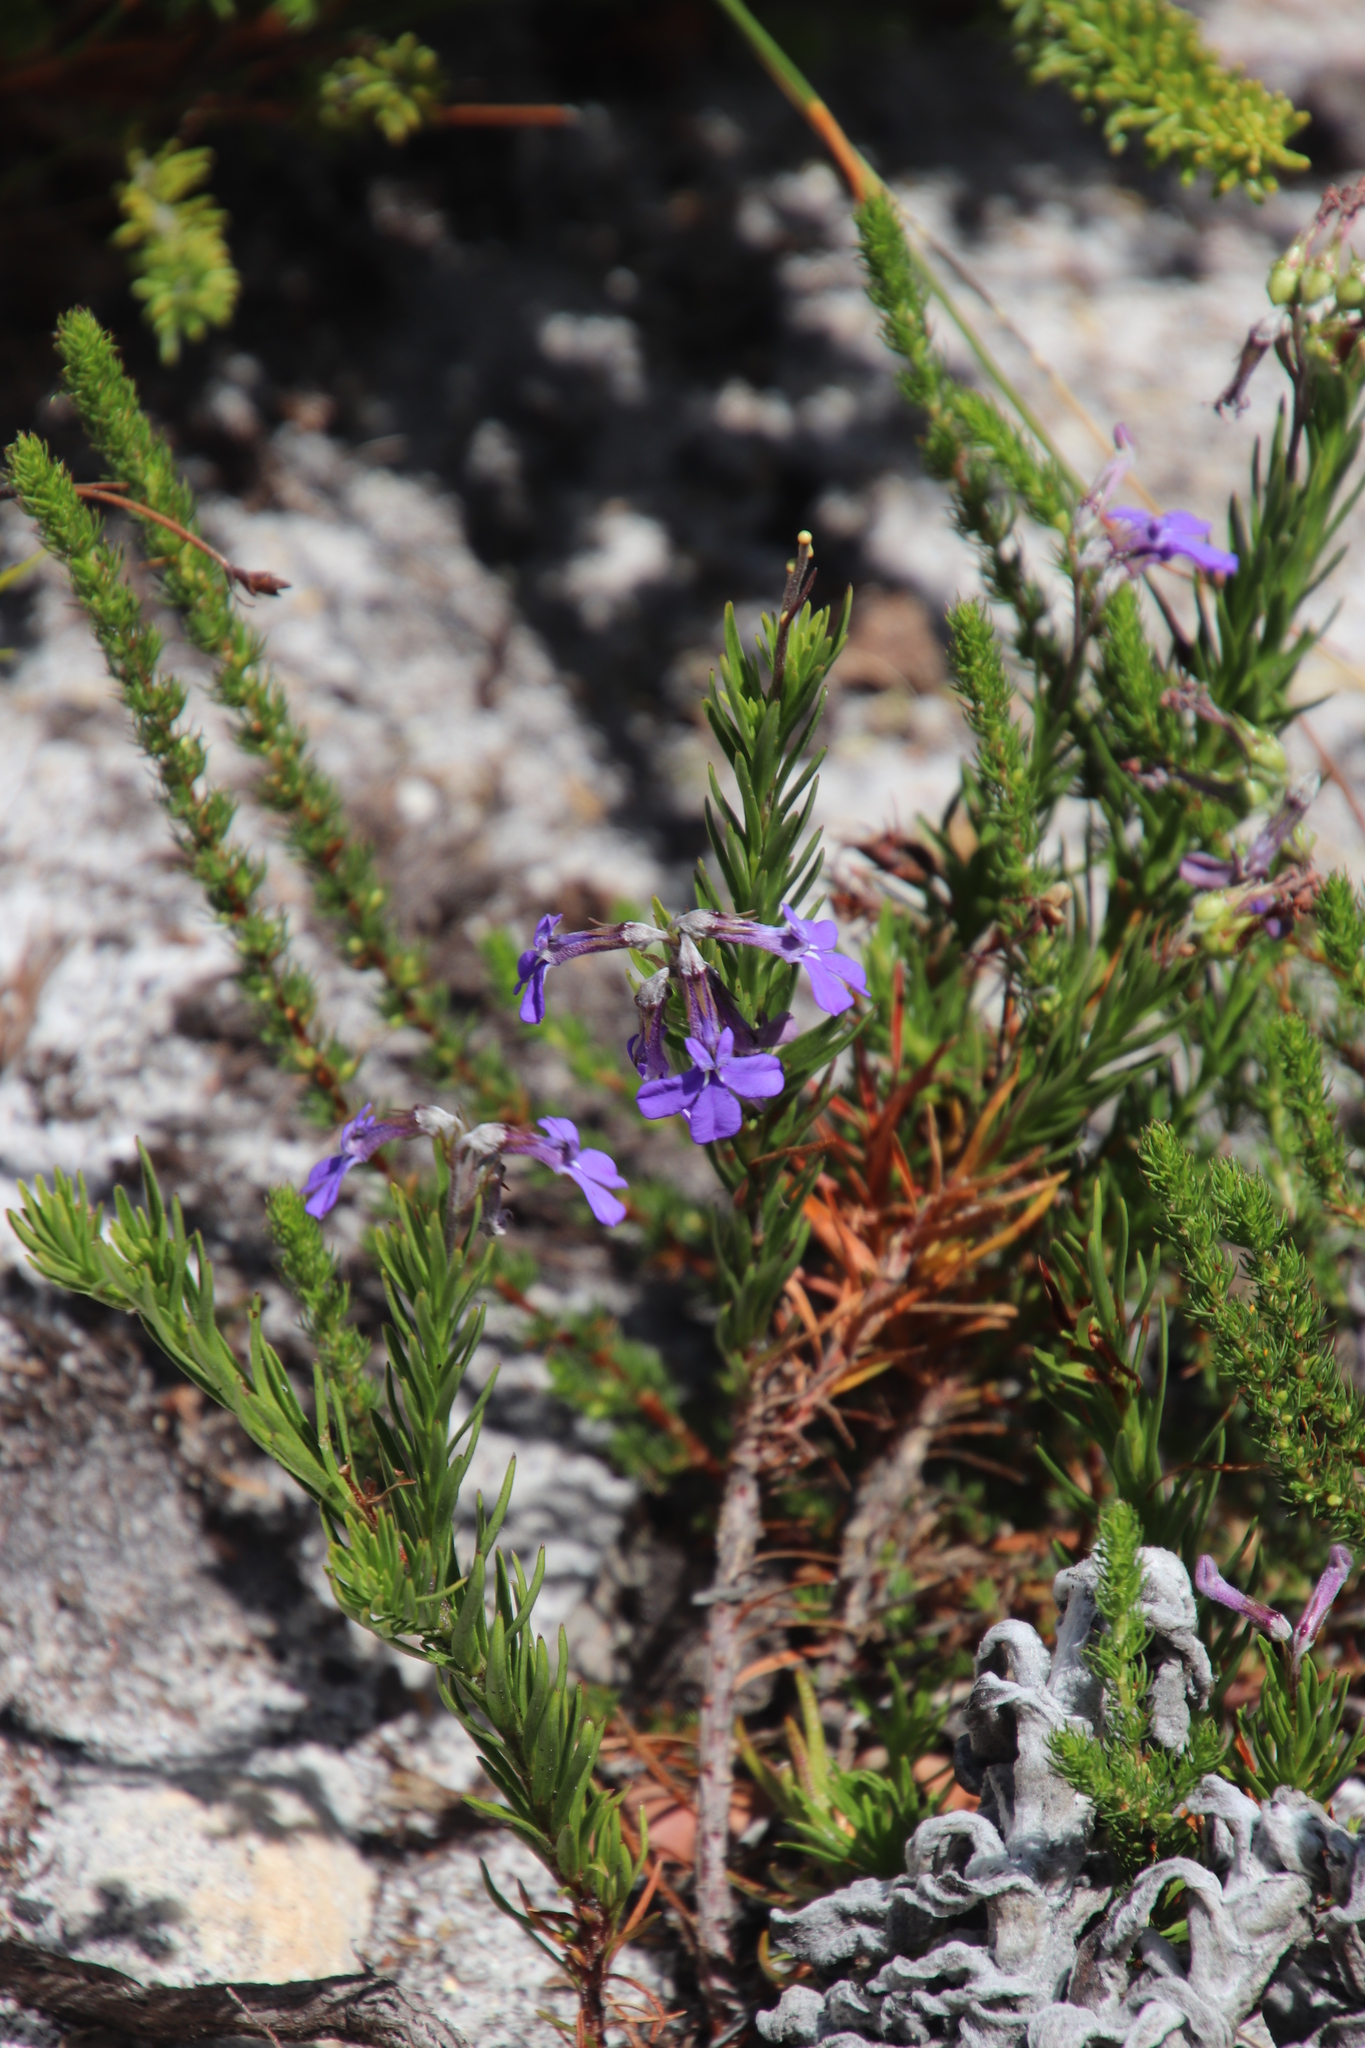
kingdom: Plantae
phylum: Tracheophyta
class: Magnoliopsida
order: Asterales
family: Campanulaceae
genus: Lobelia
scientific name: Lobelia pinifolia
